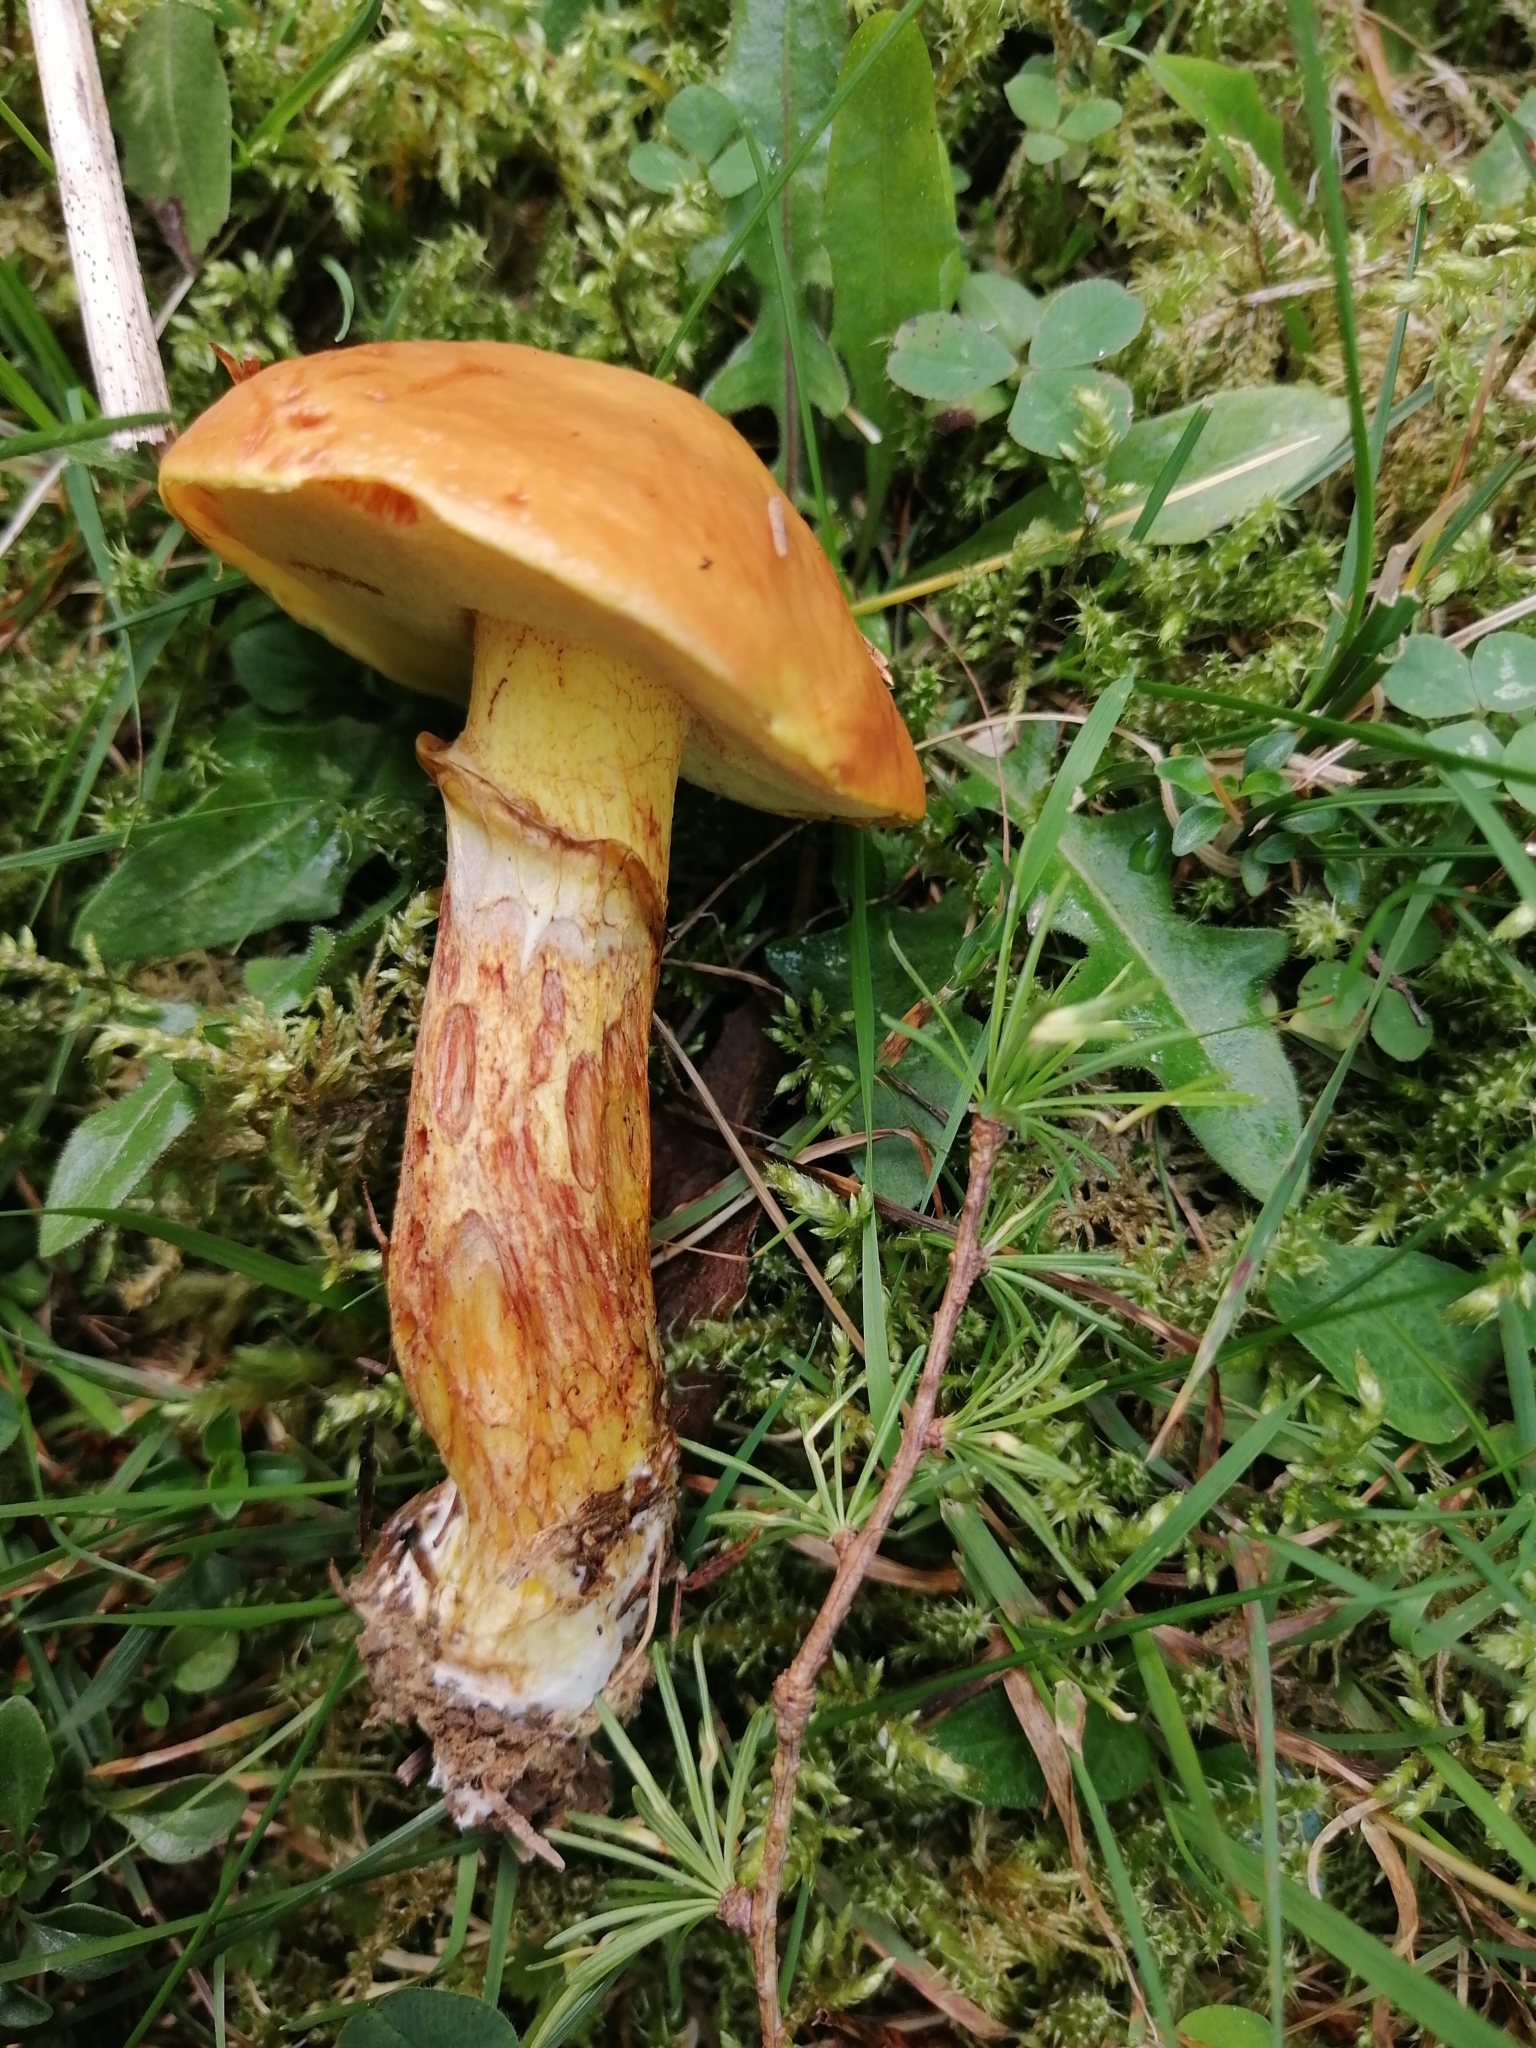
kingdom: Fungi
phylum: Basidiomycota
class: Agaricomycetes
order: Boletales
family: Suillaceae
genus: Suillus
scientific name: Suillus grevillei
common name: Larch bolete
